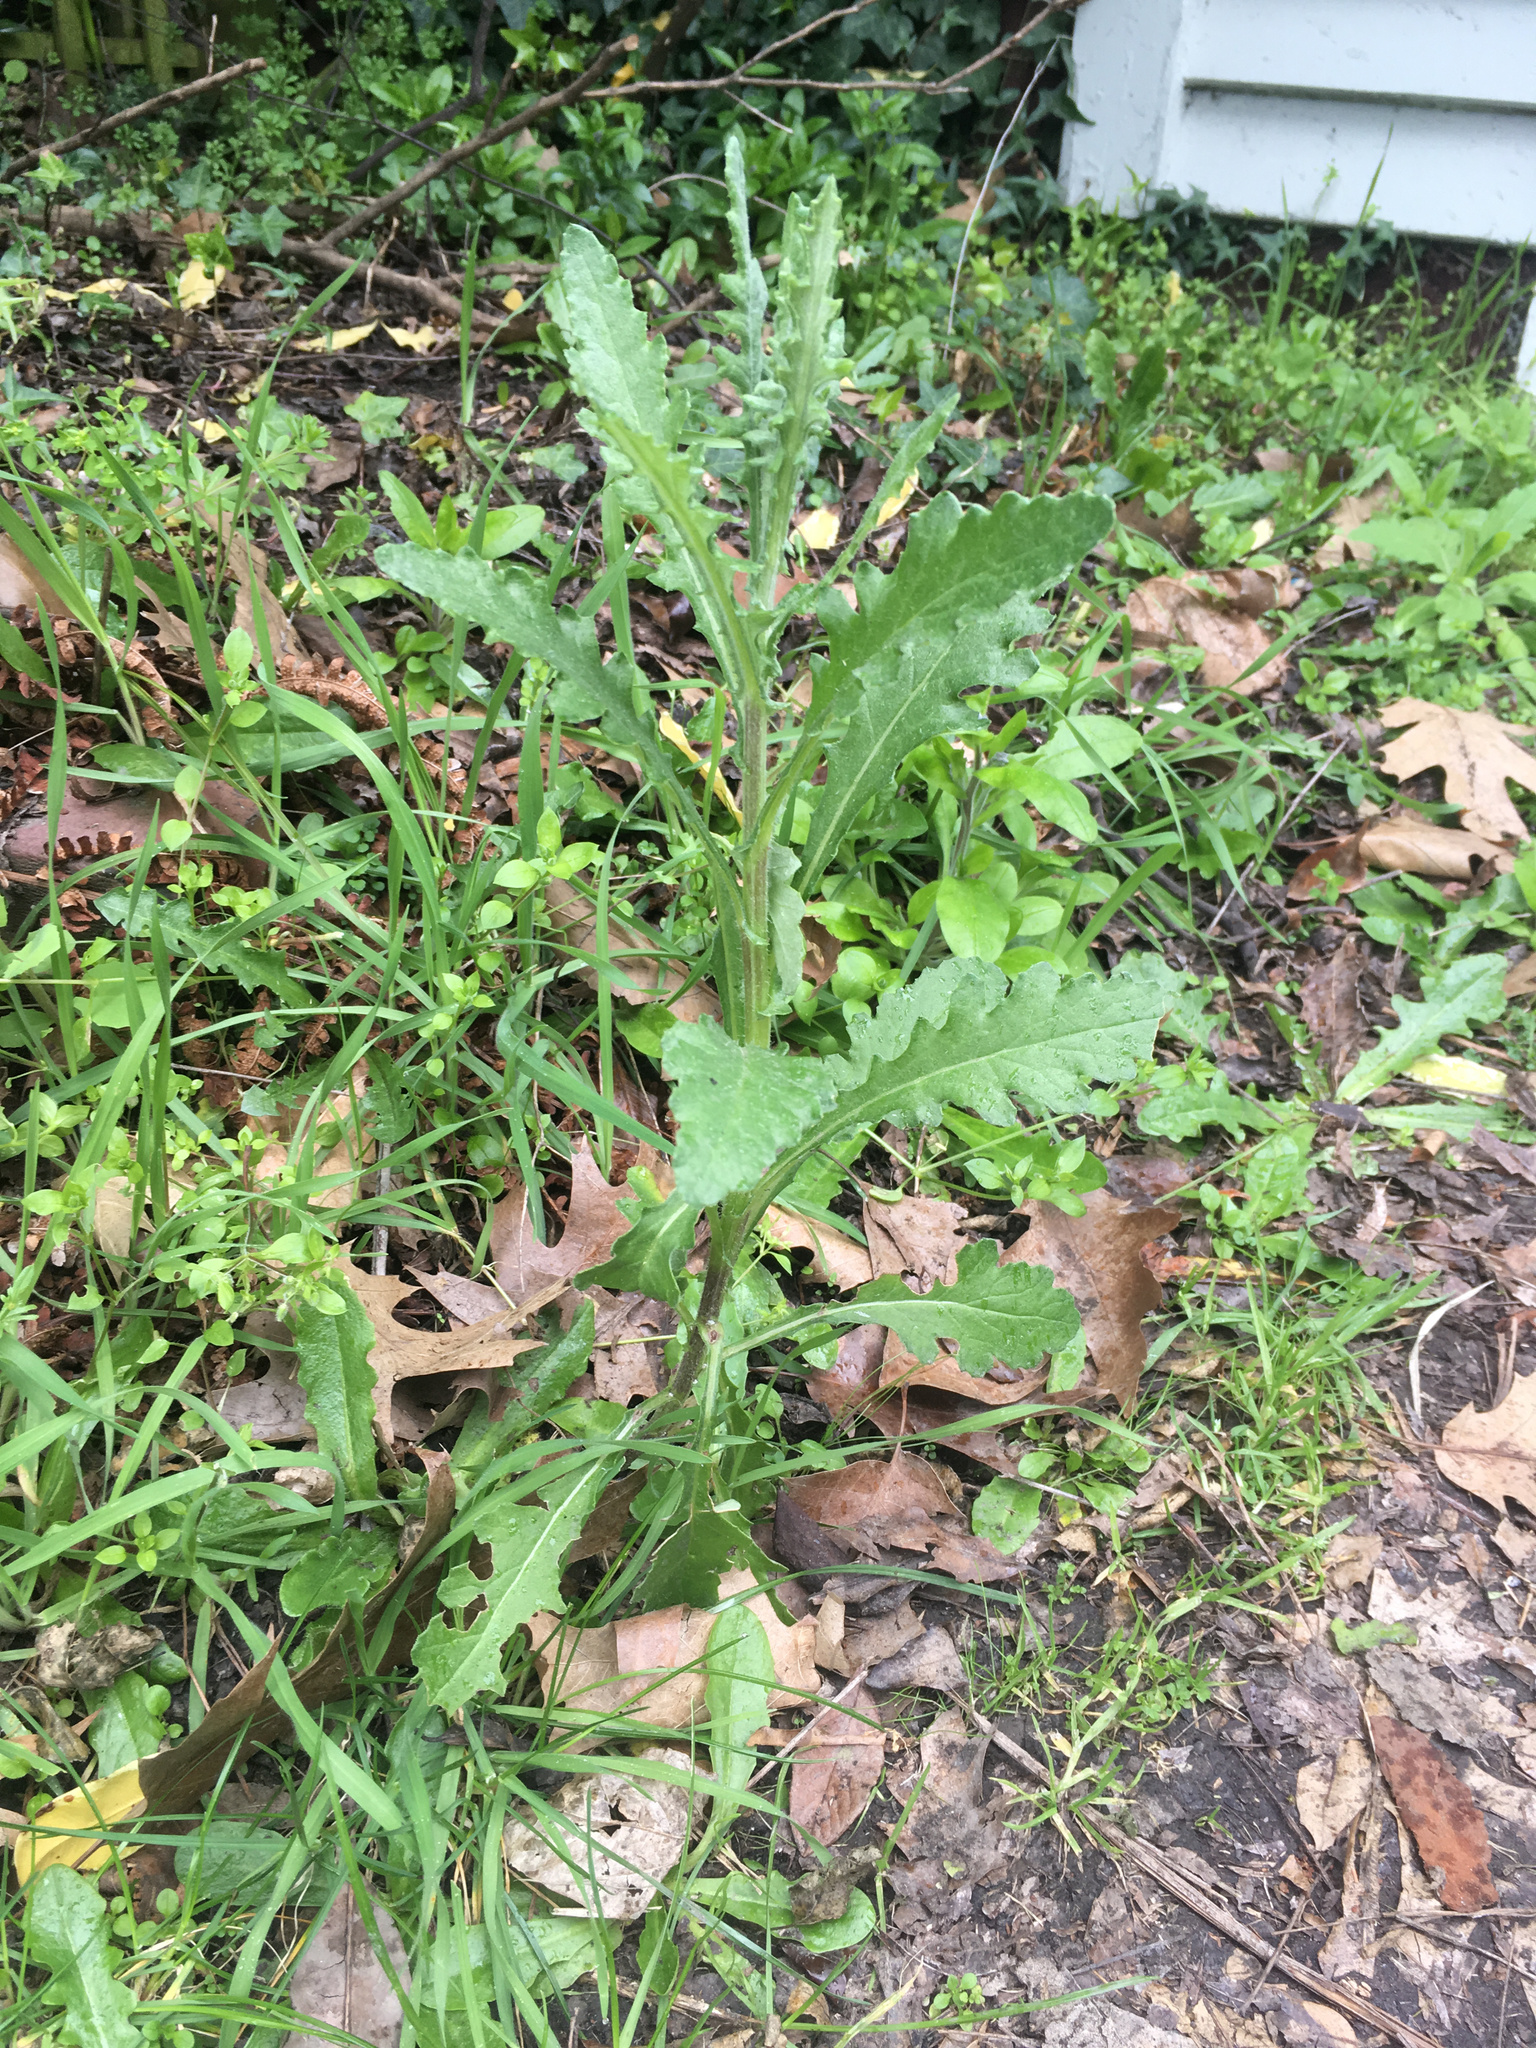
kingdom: Plantae
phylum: Tracheophyta
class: Magnoliopsida
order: Asterales
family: Asteraceae
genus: Senecio
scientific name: Senecio glomeratus
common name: Cutleaf burnweed
